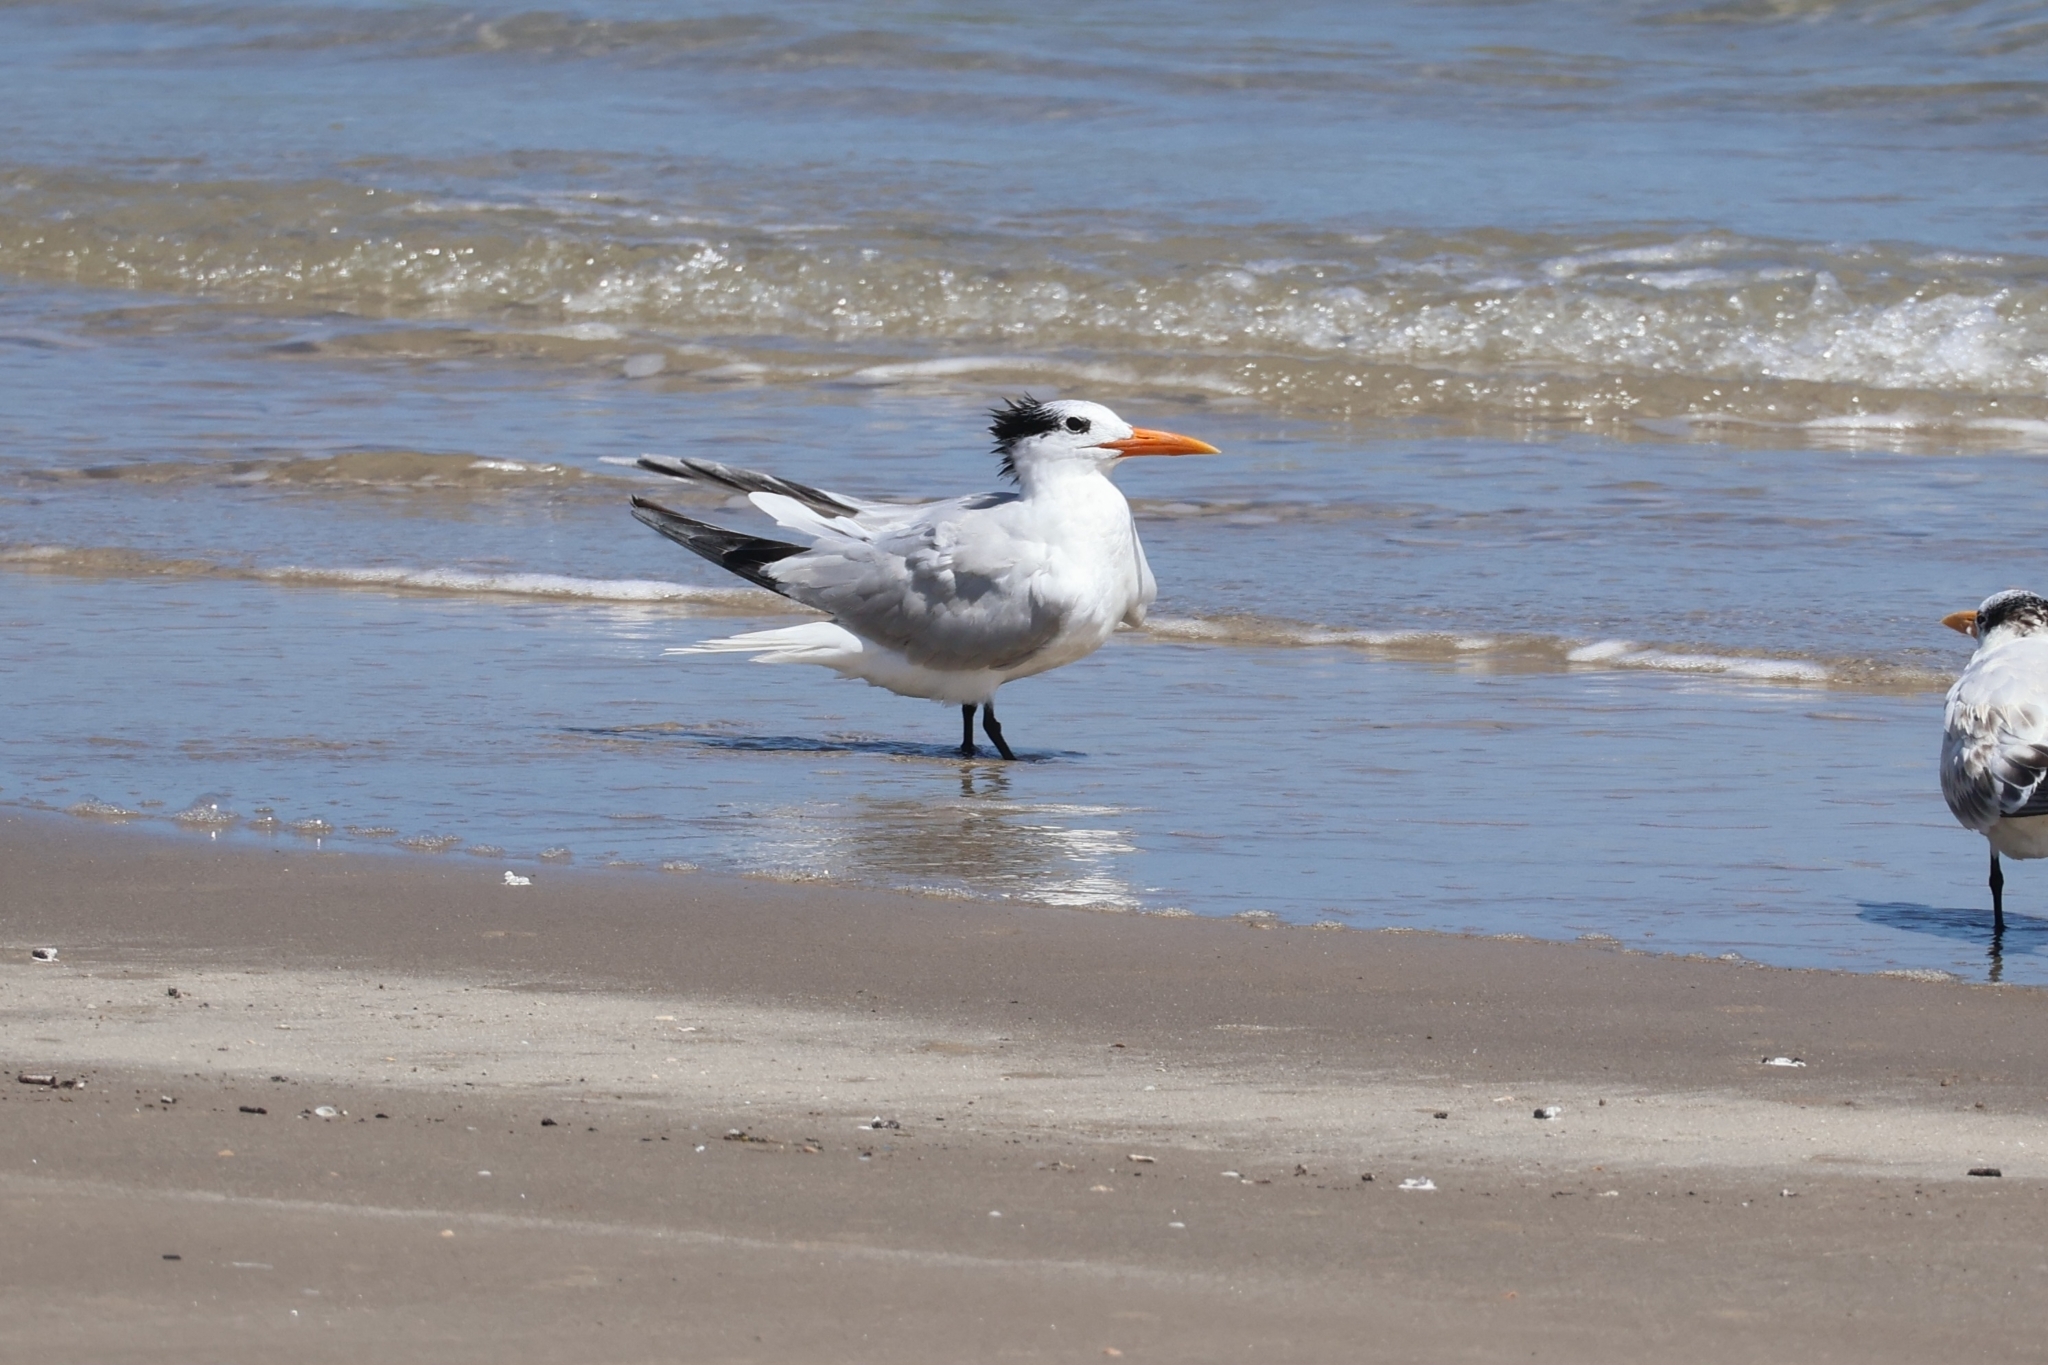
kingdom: Animalia
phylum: Chordata
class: Aves
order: Charadriiformes
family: Laridae
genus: Thalasseus
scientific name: Thalasseus maximus
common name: Royal tern
